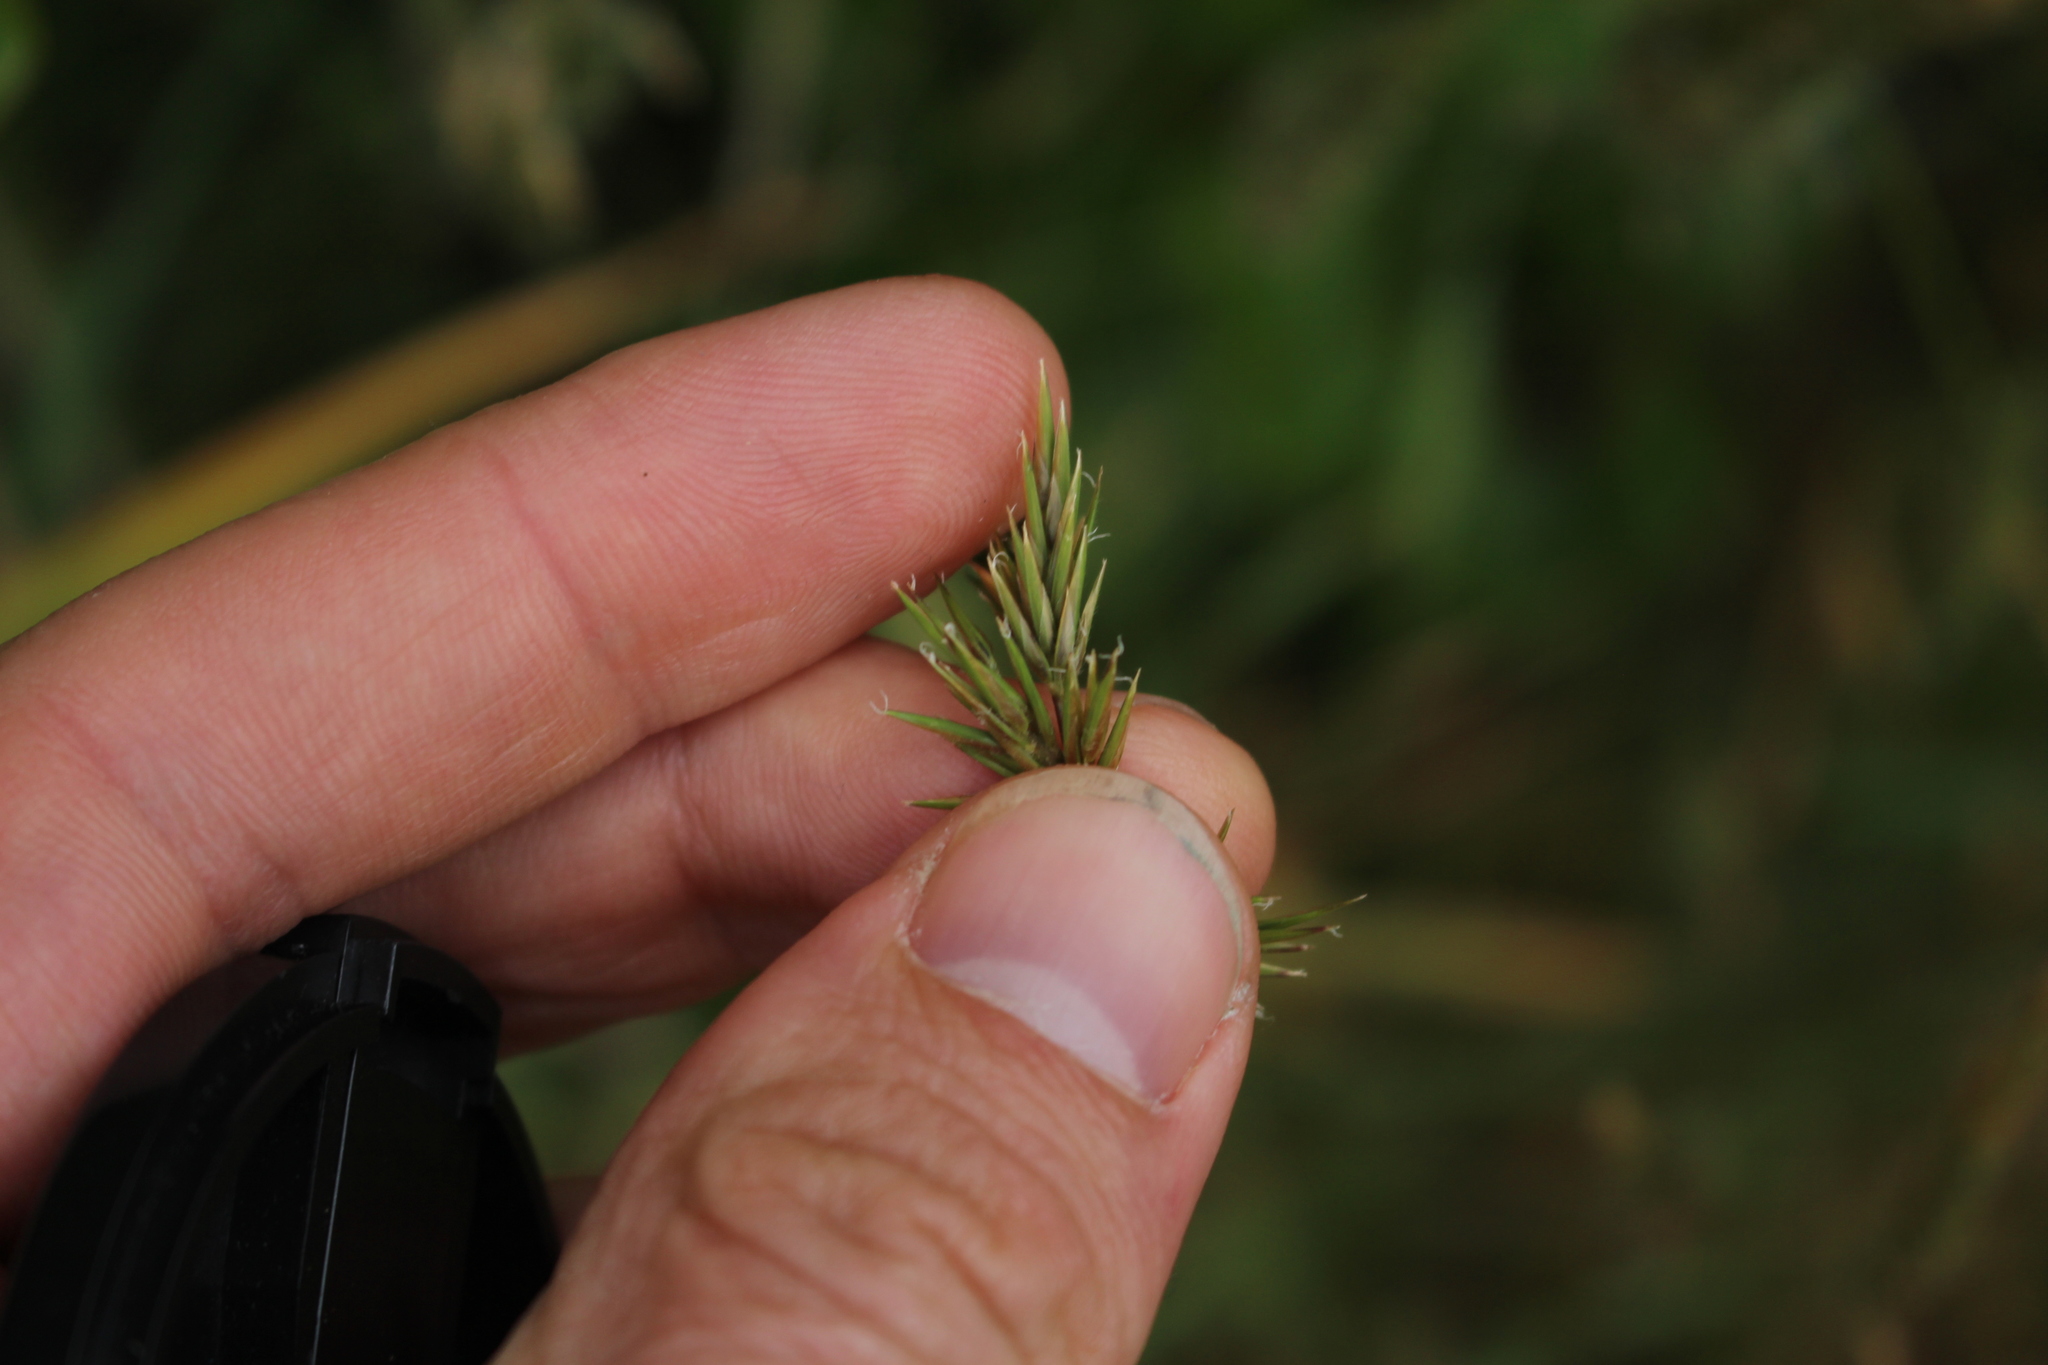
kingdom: Plantae
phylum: Tracheophyta
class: Liliopsida
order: Poales
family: Poaceae
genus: Anthoxanthum
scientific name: Anthoxanthum odoratum
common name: Sweet vernalgrass
